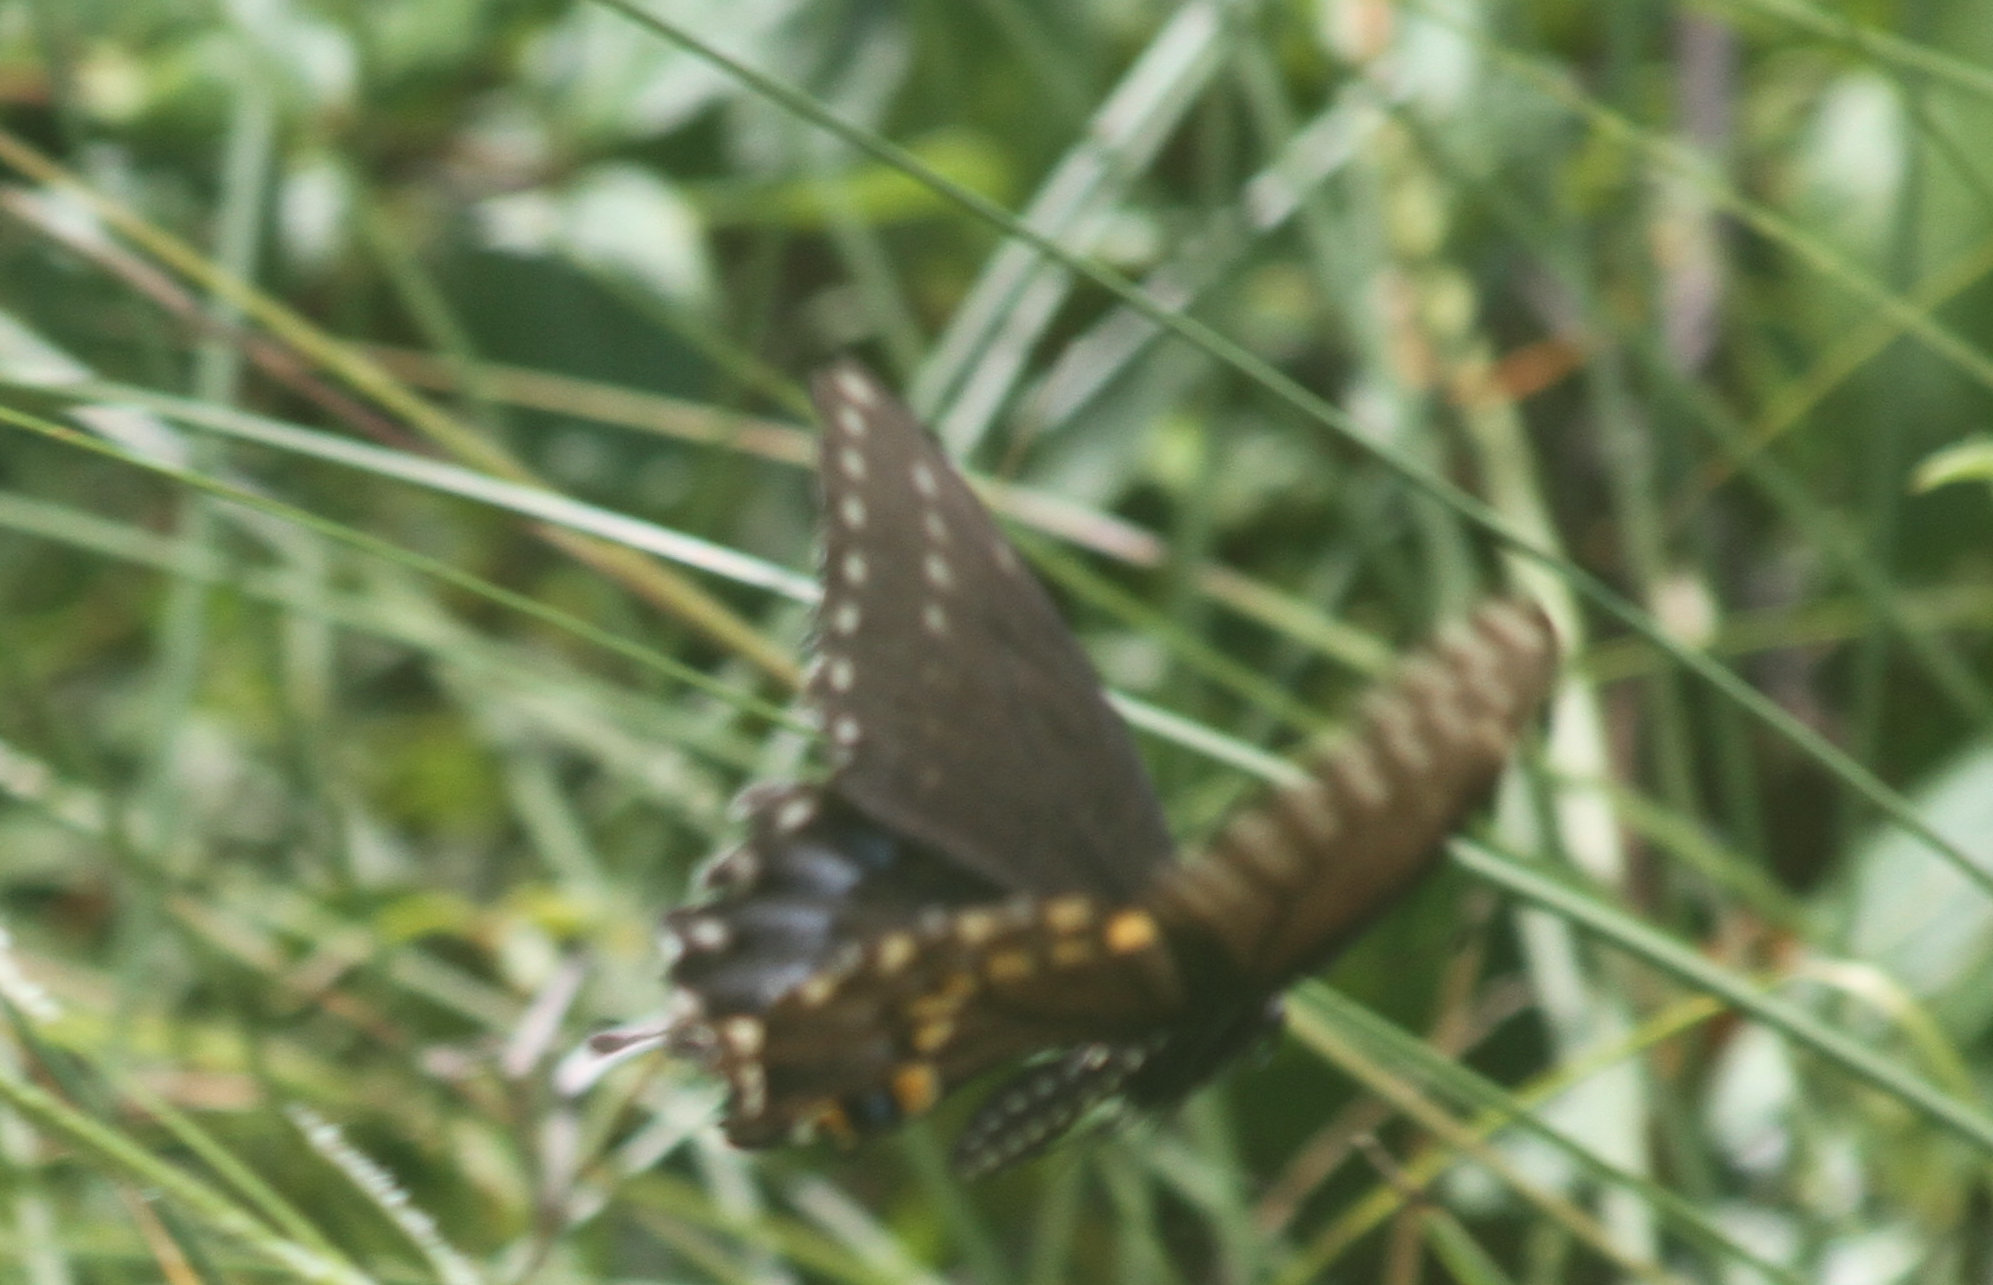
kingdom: Animalia
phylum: Arthropoda
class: Insecta
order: Lepidoptera
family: Papilionidae
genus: Papilio
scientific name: Papilio polyxenes
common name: Black swallowtail
